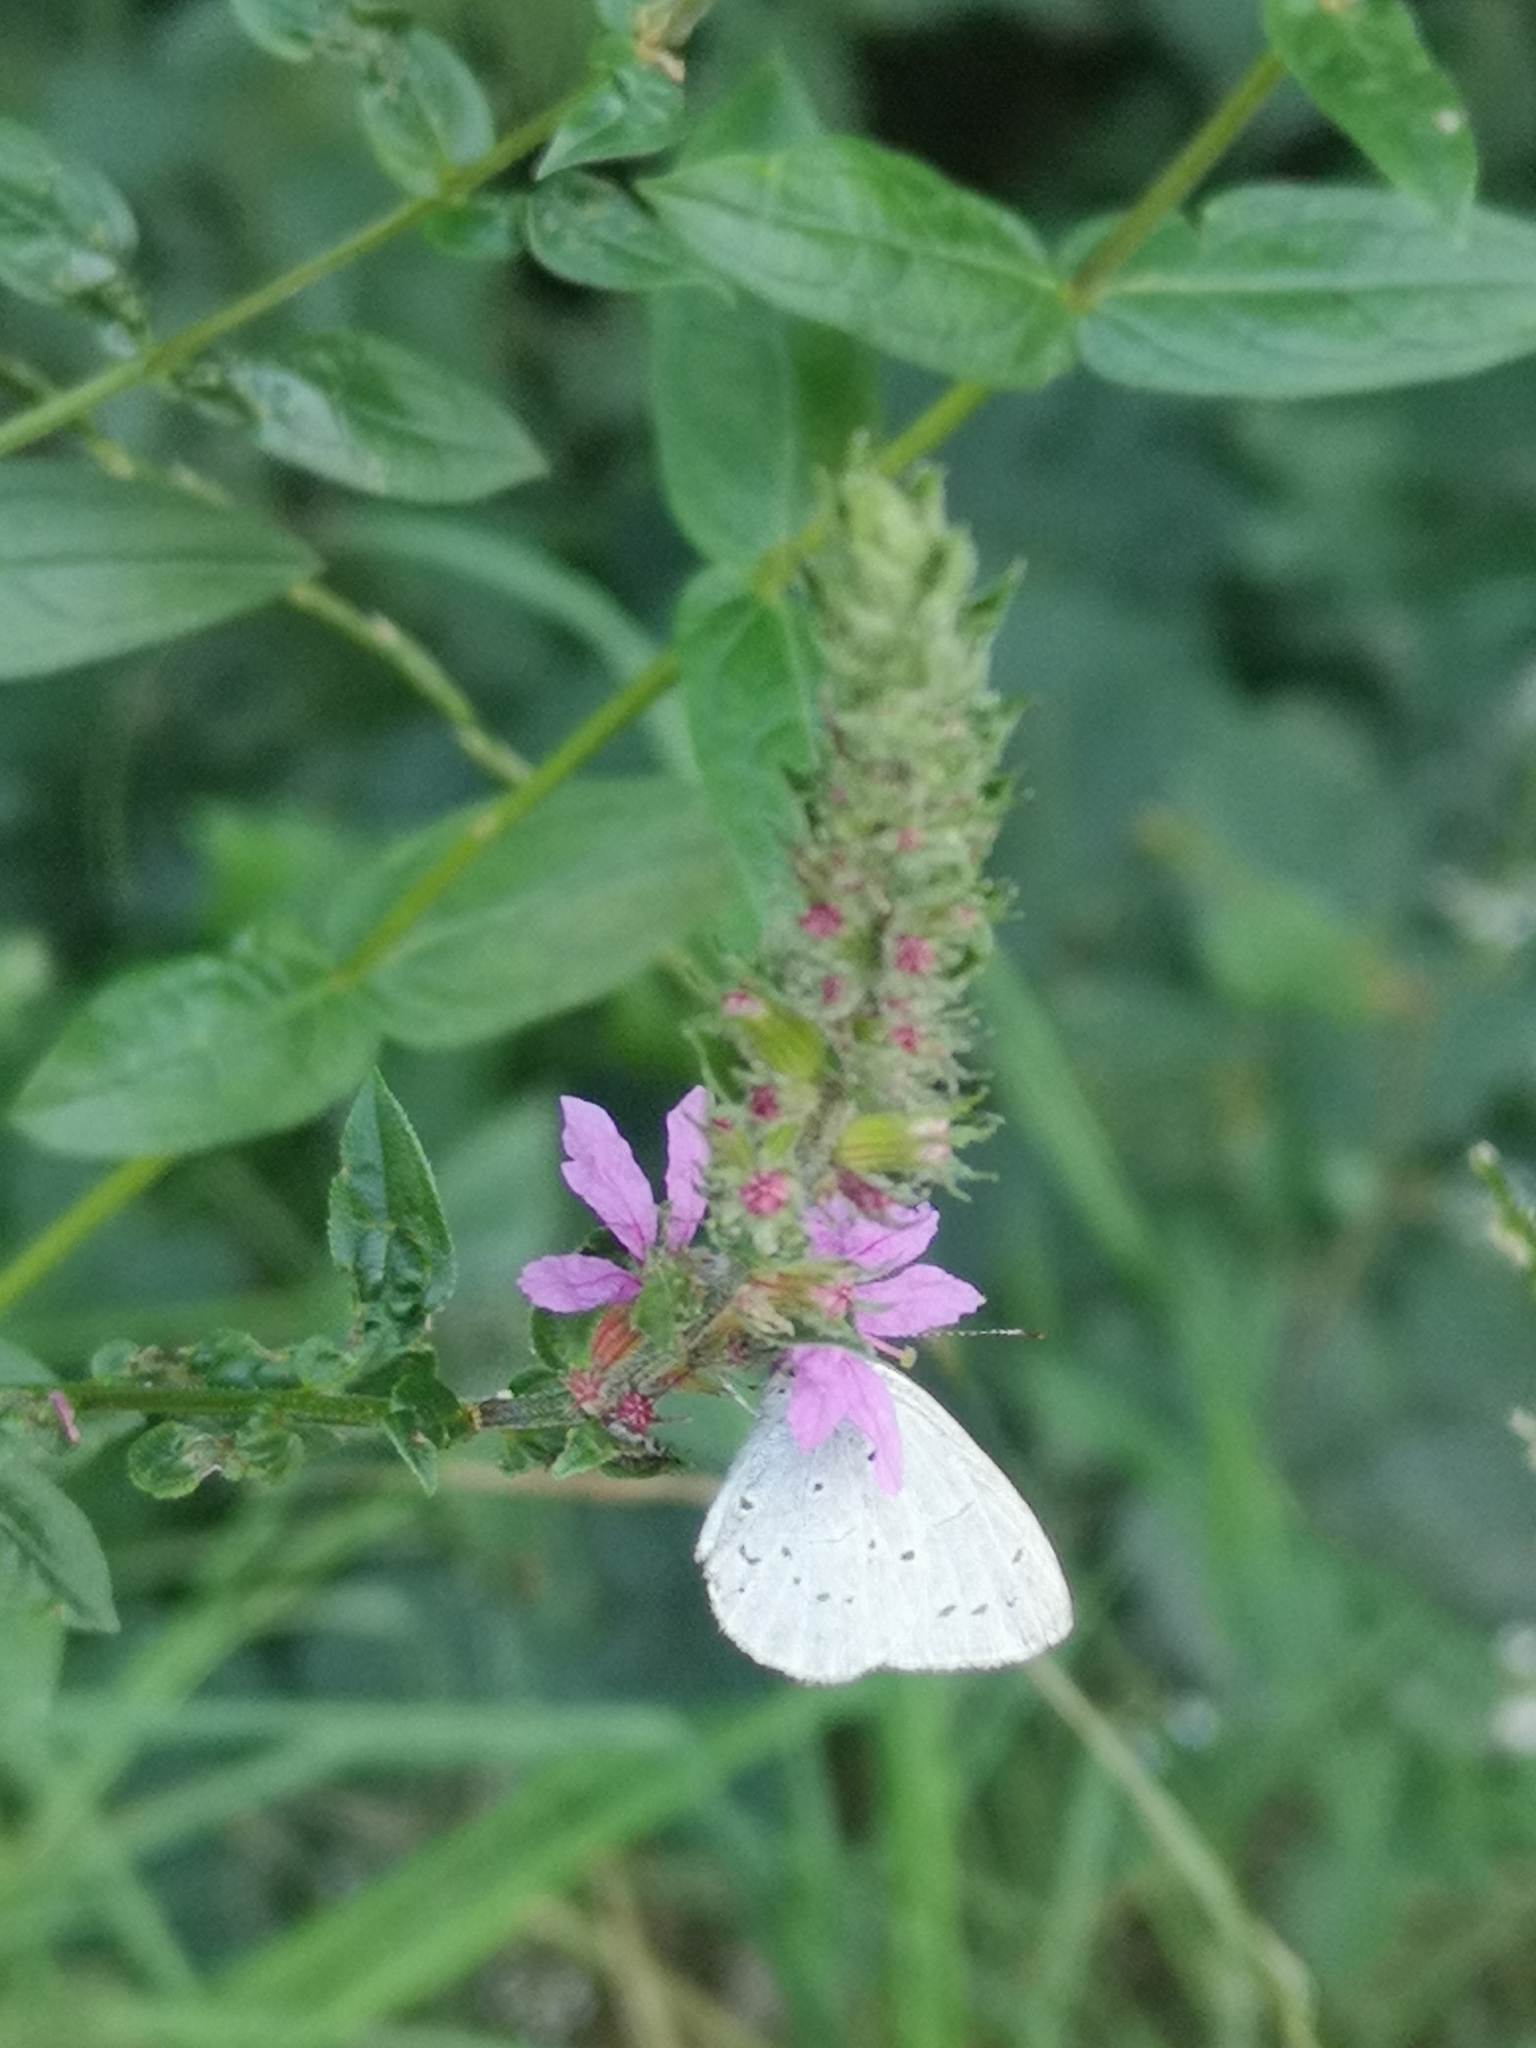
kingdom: Animalia
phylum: Arthropoda
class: Insecta
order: Lepidoptera
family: Lycaenidae
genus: Celastrina
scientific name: Celastrina argiolus
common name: Holly blue
